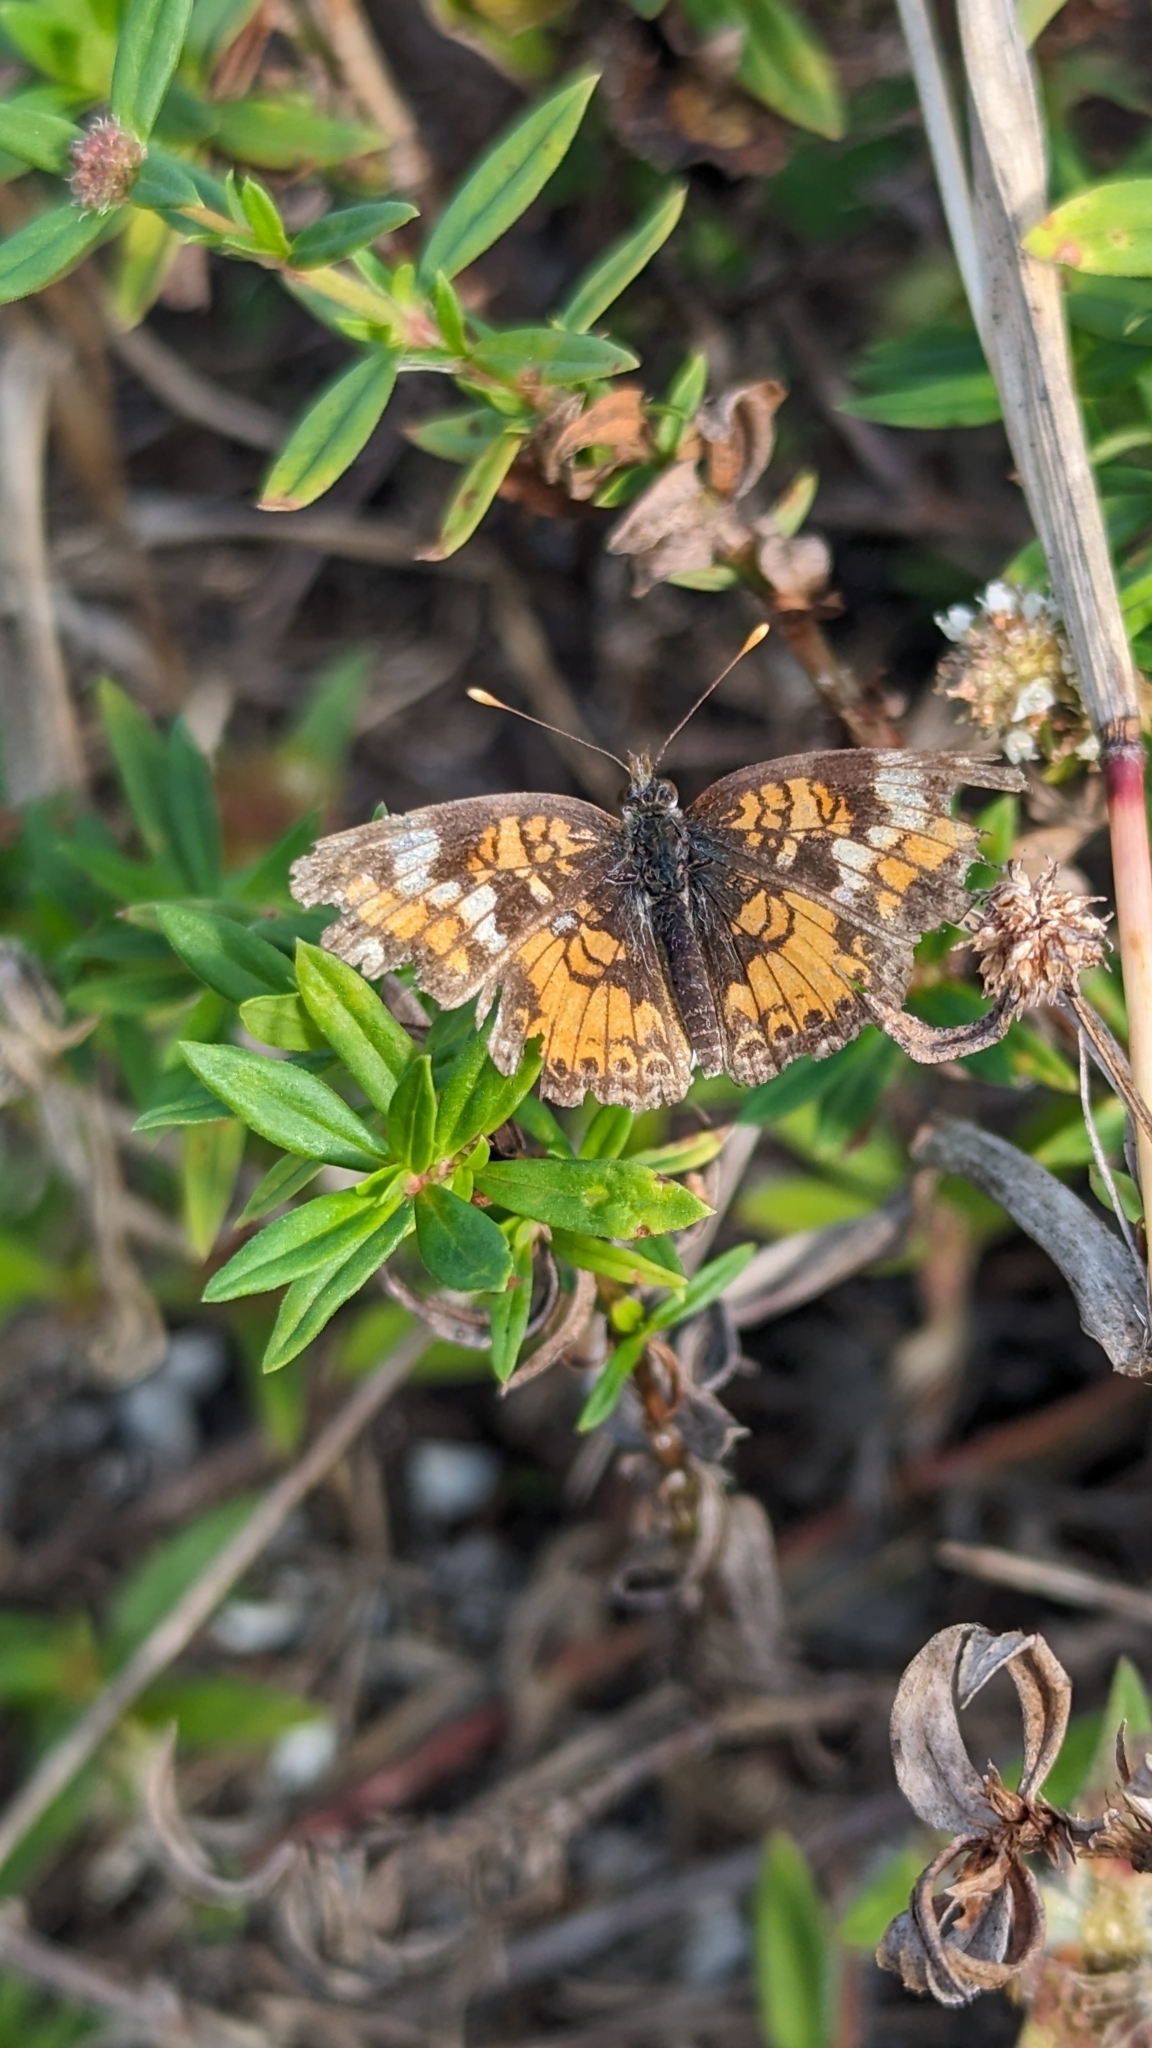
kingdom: Animalia
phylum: Arthropoda
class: Insecta
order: Lepidoptera
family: Nymphalidae
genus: Phyciodes
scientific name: Phyciodes phaon
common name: Phaon crescent
